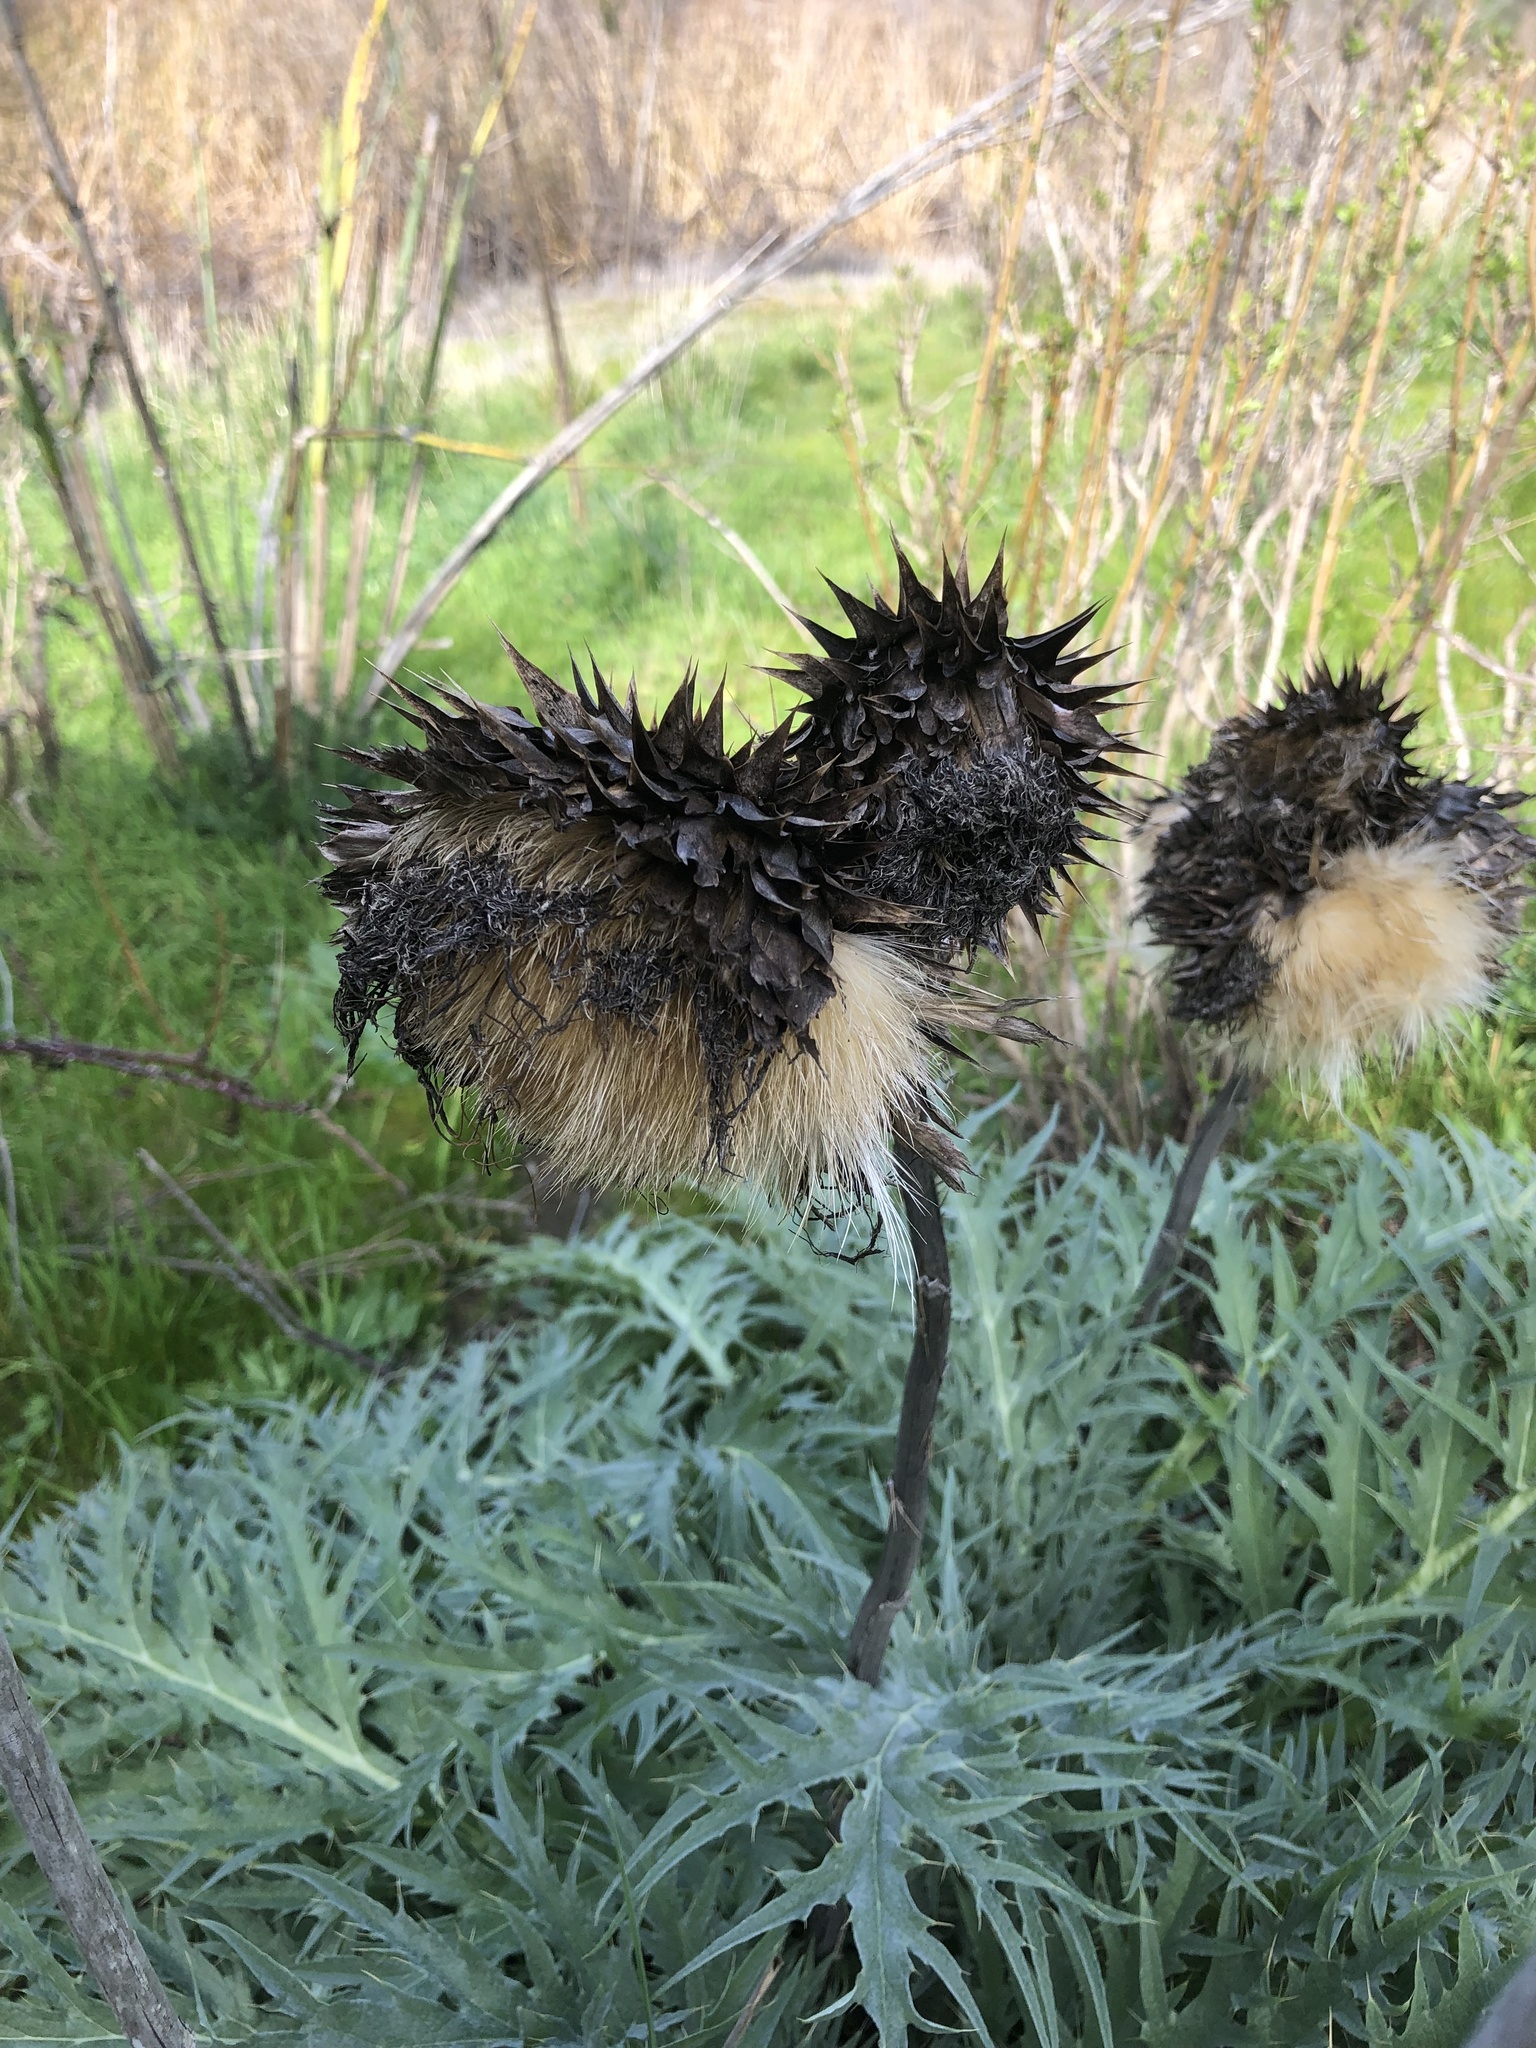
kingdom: Plantae
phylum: Tracheophyta
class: Magnoliopsida
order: Asterales
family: Asteraceae
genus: Cynara
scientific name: Cynara cardunculus
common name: Globe artichoke
